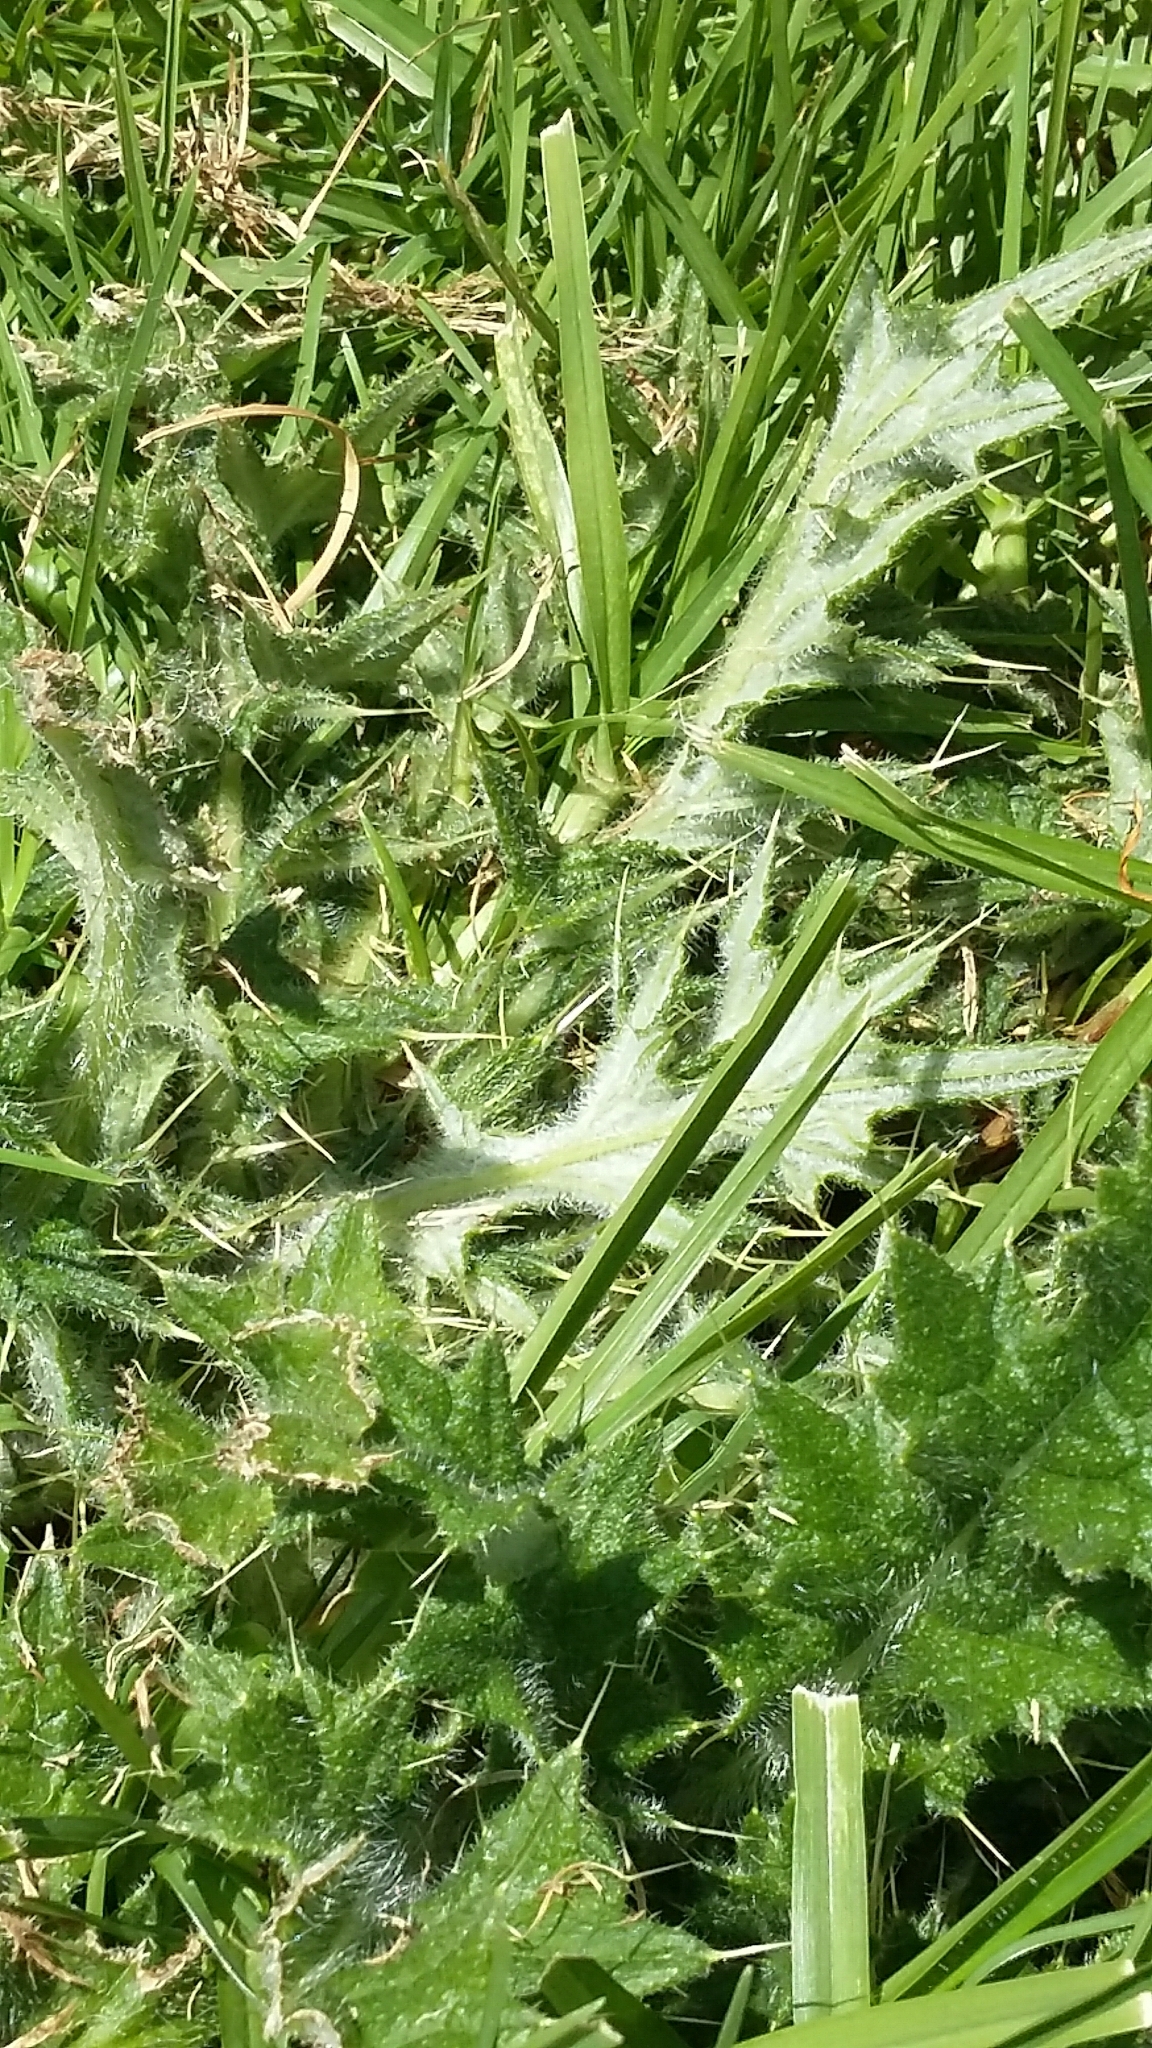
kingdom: Plantae
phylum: Tracheophyta
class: Magnoliopsida
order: Asterales
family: Asteraceae
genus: Cirsium
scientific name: Cirsium vulgare
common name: Bull thistle
